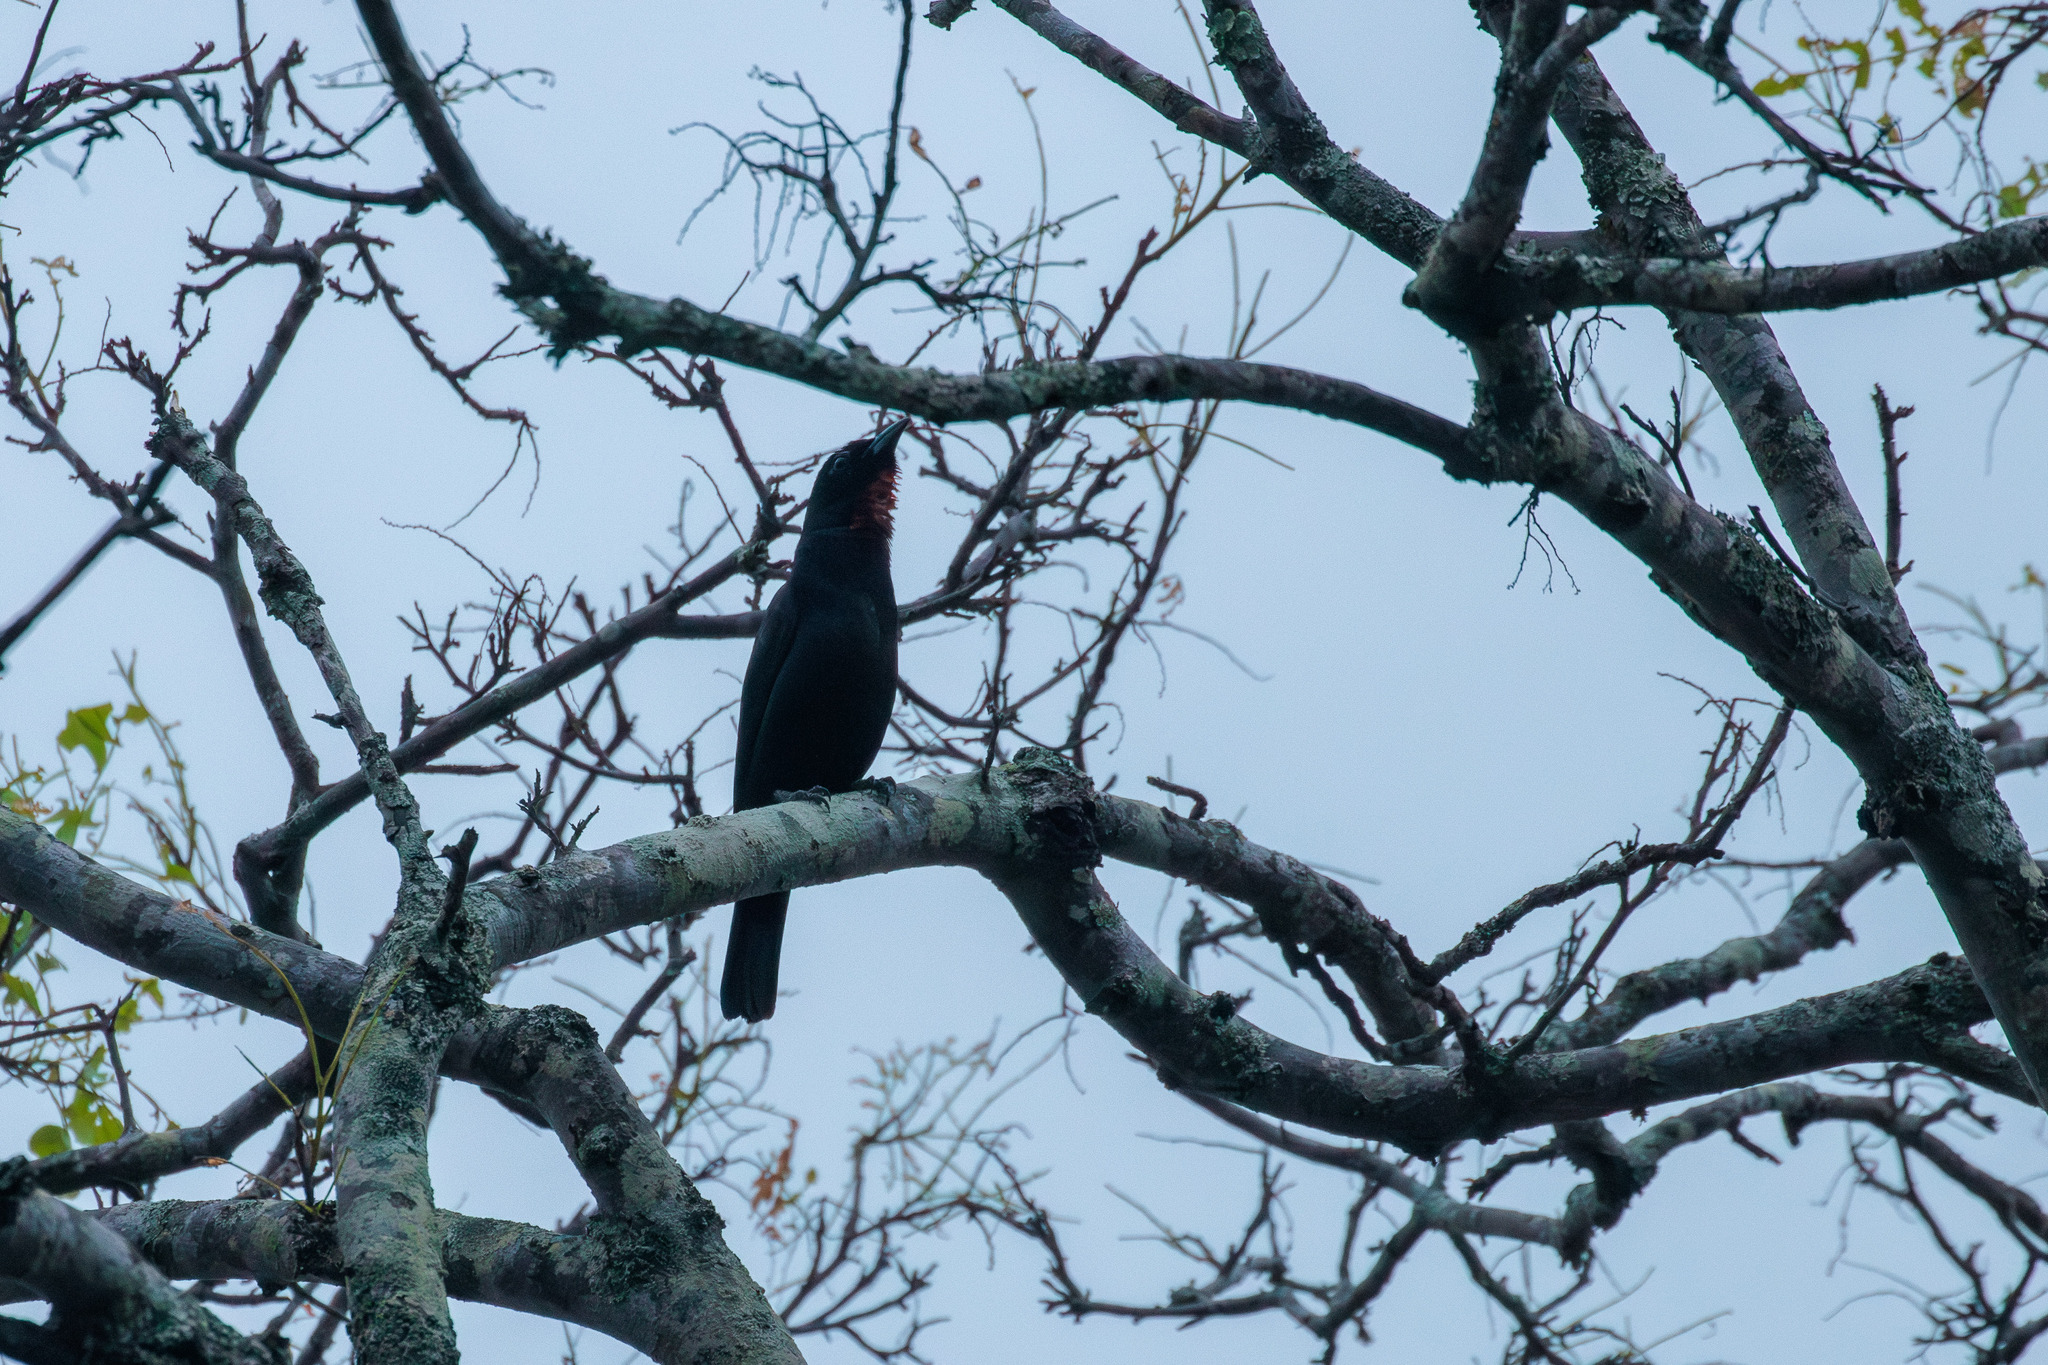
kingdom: Animalia
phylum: Chordata
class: Aves
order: Passeriformes
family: Thraupidae
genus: Compsothraupis
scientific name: Compsothraupis loricata
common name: Scarlet-throated tanager
